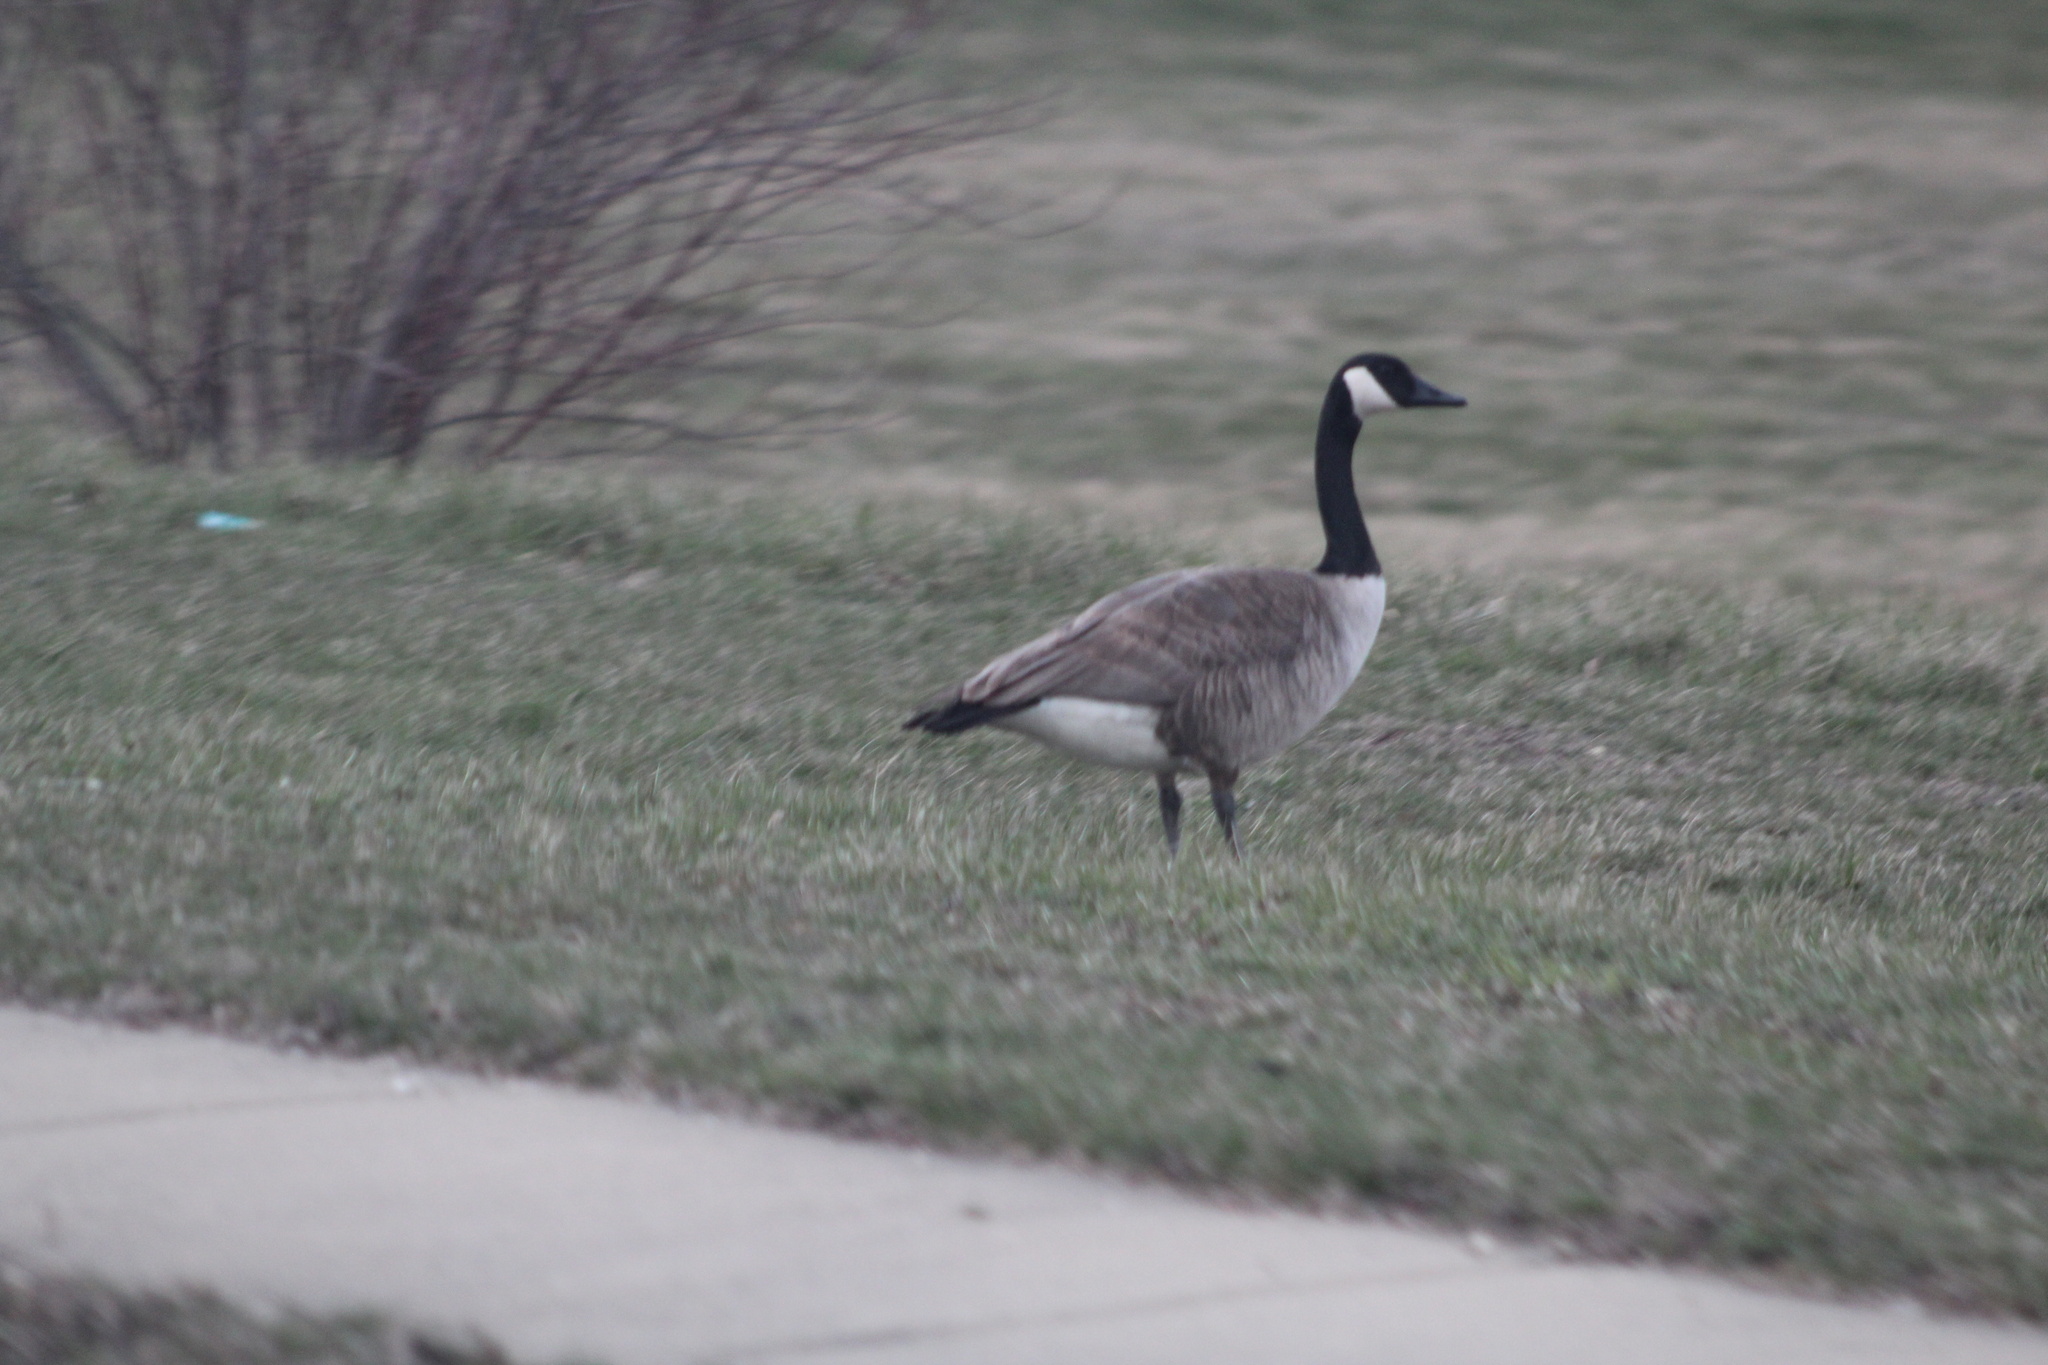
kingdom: Animalia
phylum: Chordata
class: Aves
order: Anseriformes
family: Anatidae
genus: Branta
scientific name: Branta canadensis
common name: Canada goose
